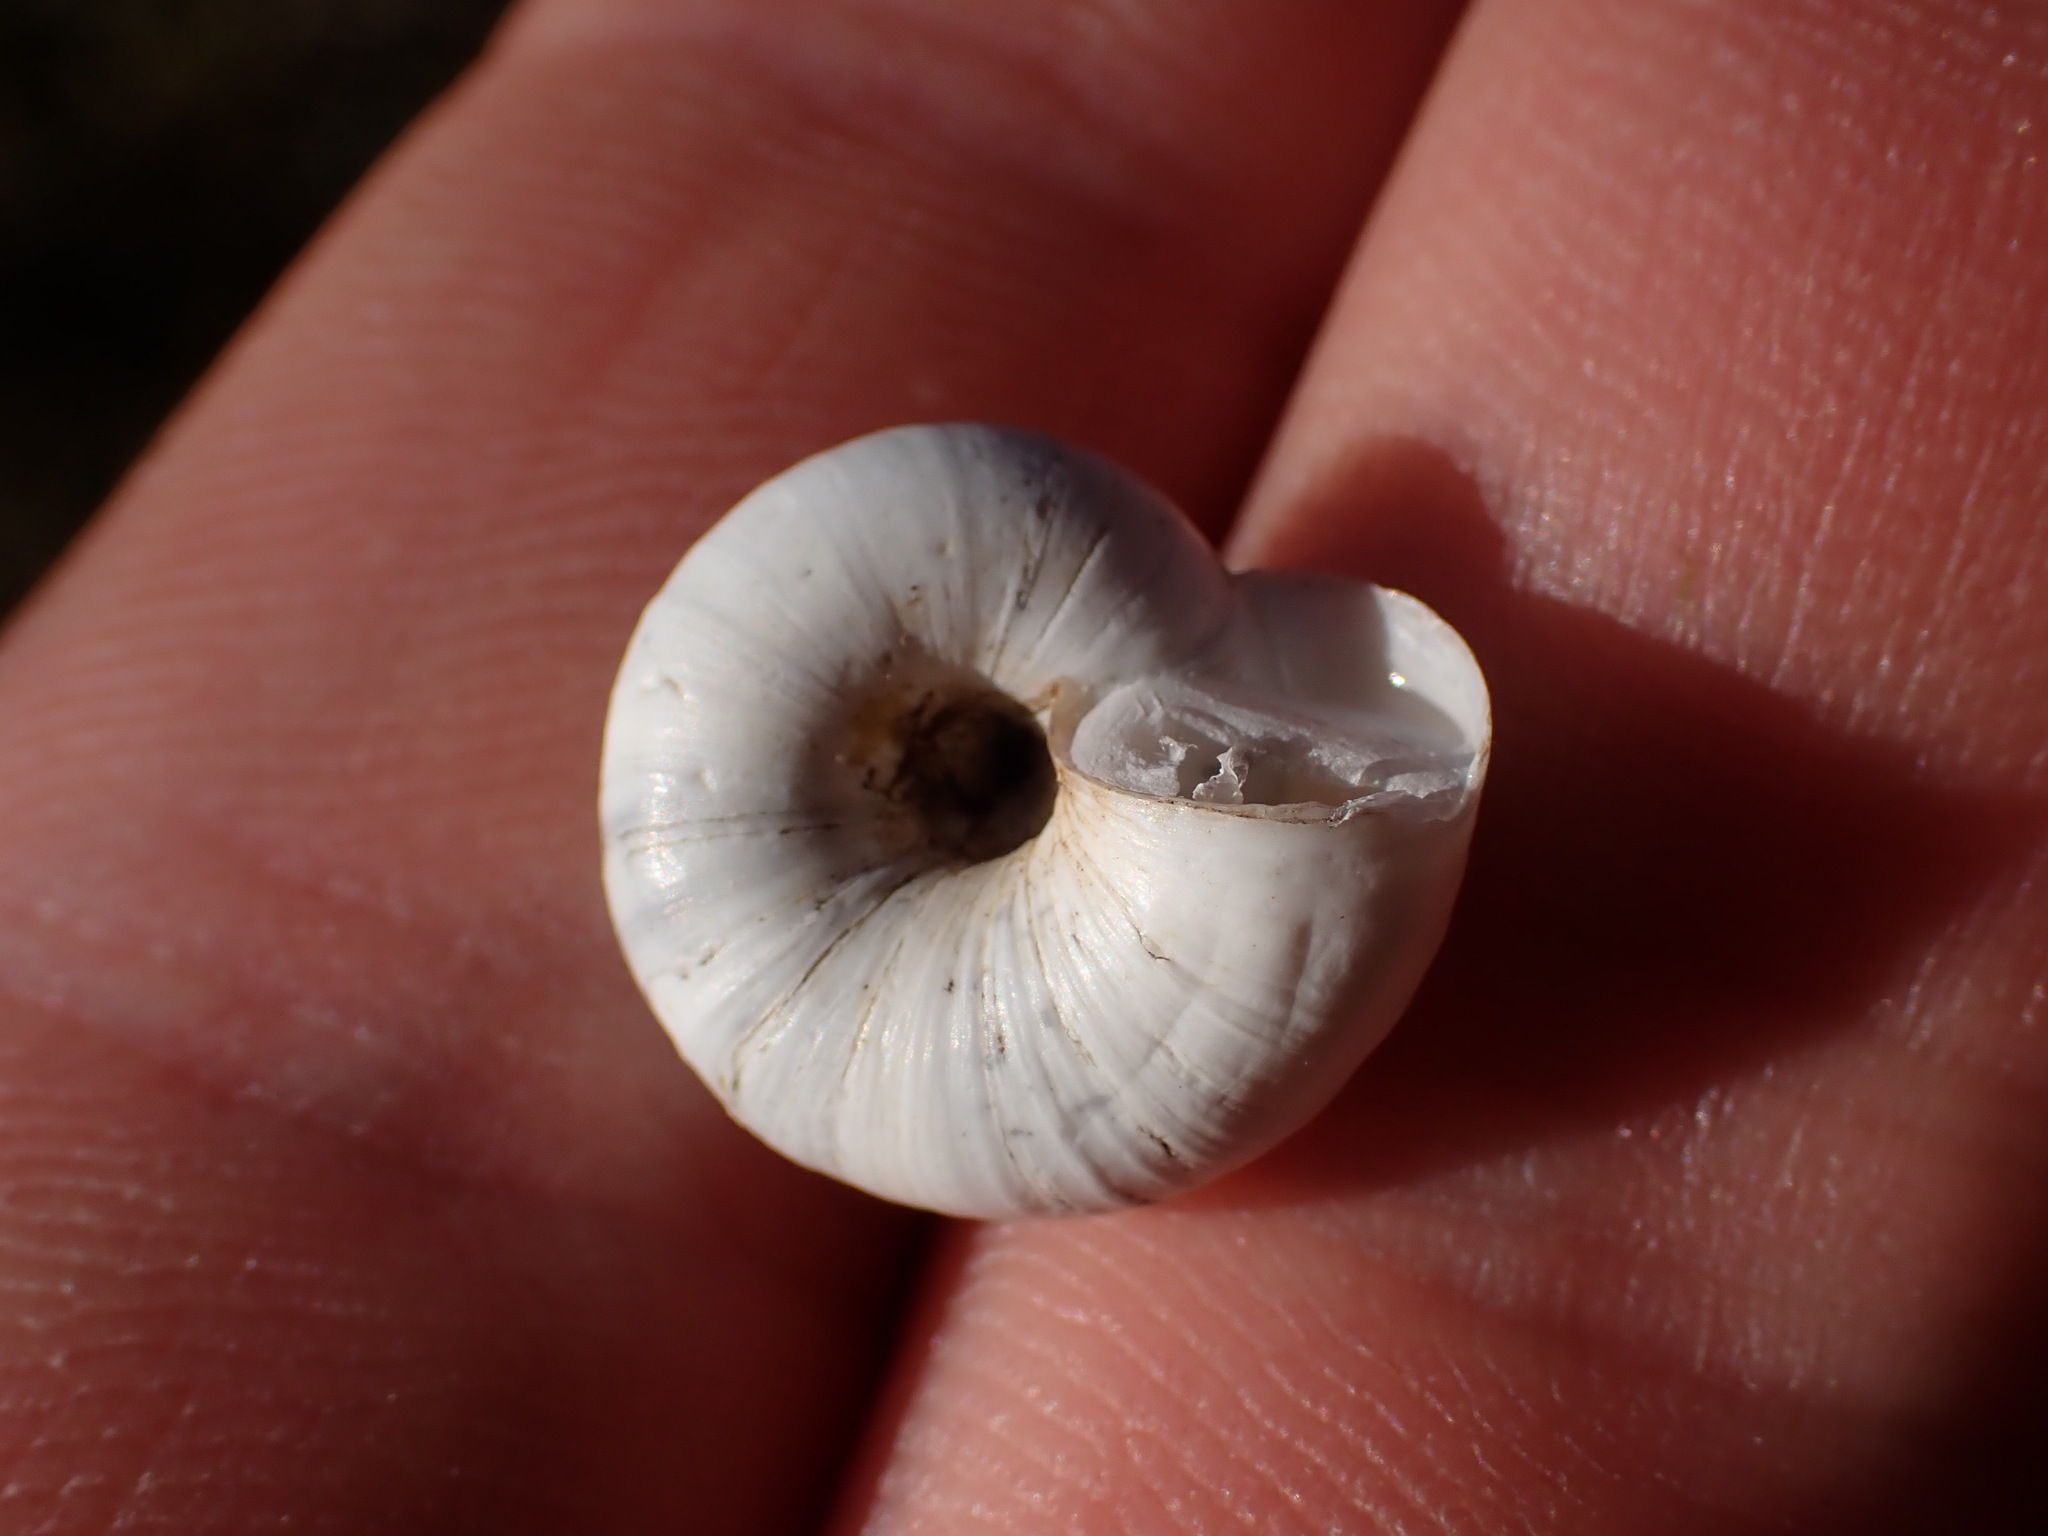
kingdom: Animalia
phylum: Mollusca
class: Gastropoda
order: Stylommatophora
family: Geomitridae
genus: Xeropicta
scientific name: Xeropicta derbentina
